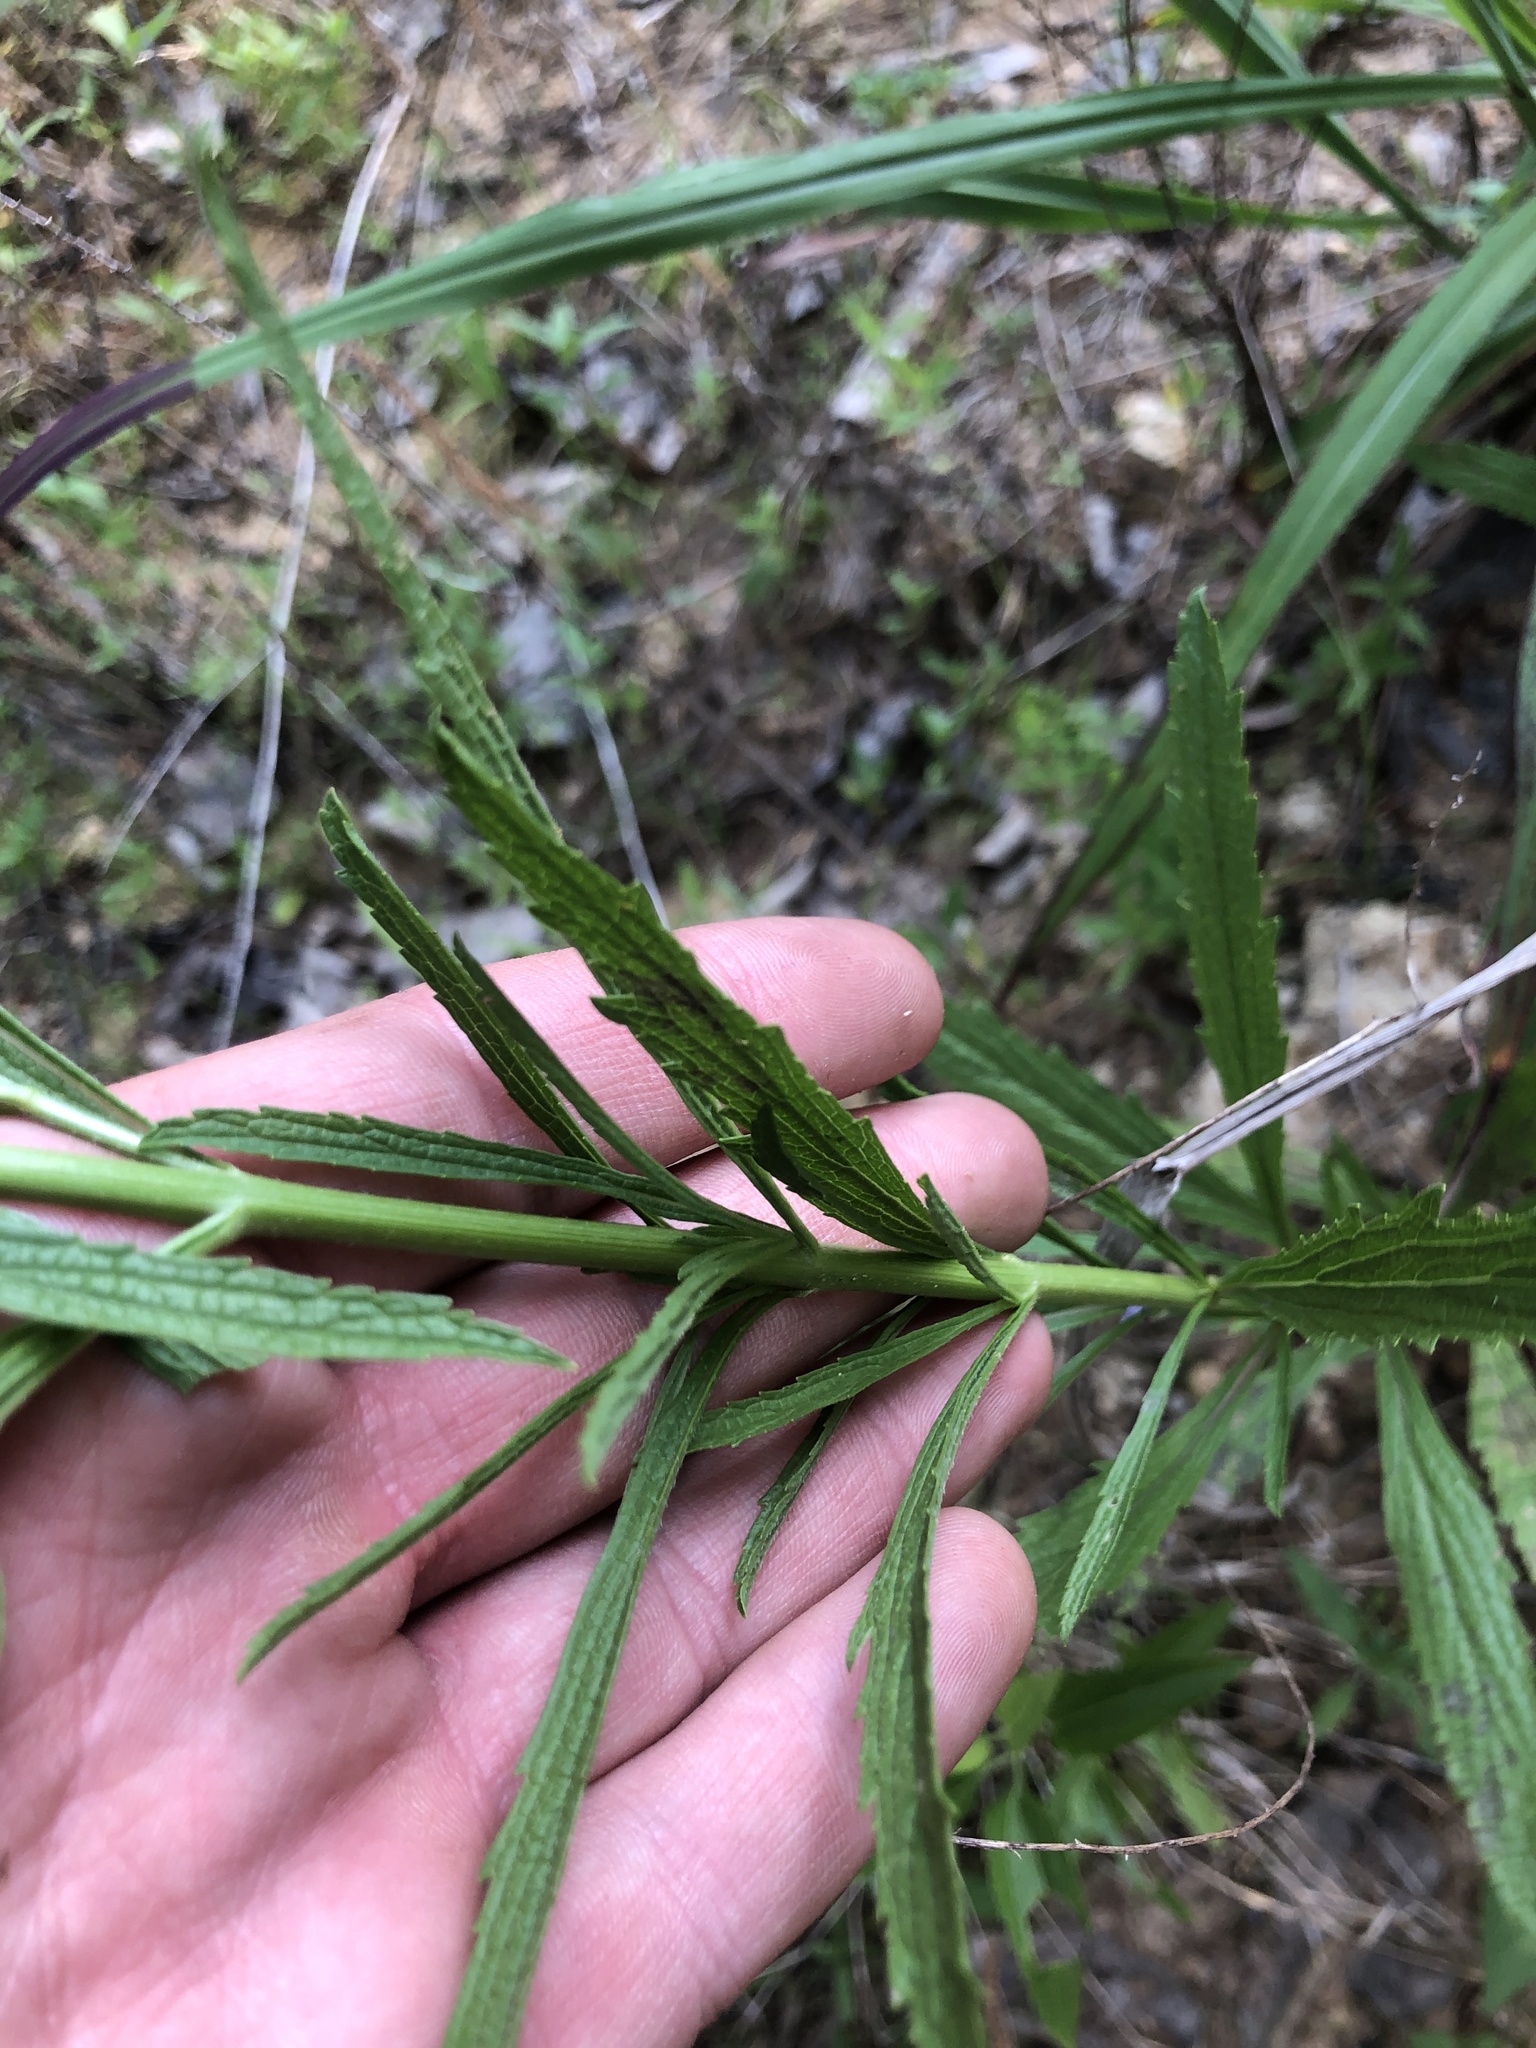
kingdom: Plantae
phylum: Tracheophyta
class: Magnoliopsida
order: Lamiales
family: Verbenaceae
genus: Verbena
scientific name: Verbena simplex
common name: Narrow-leaf vervain
